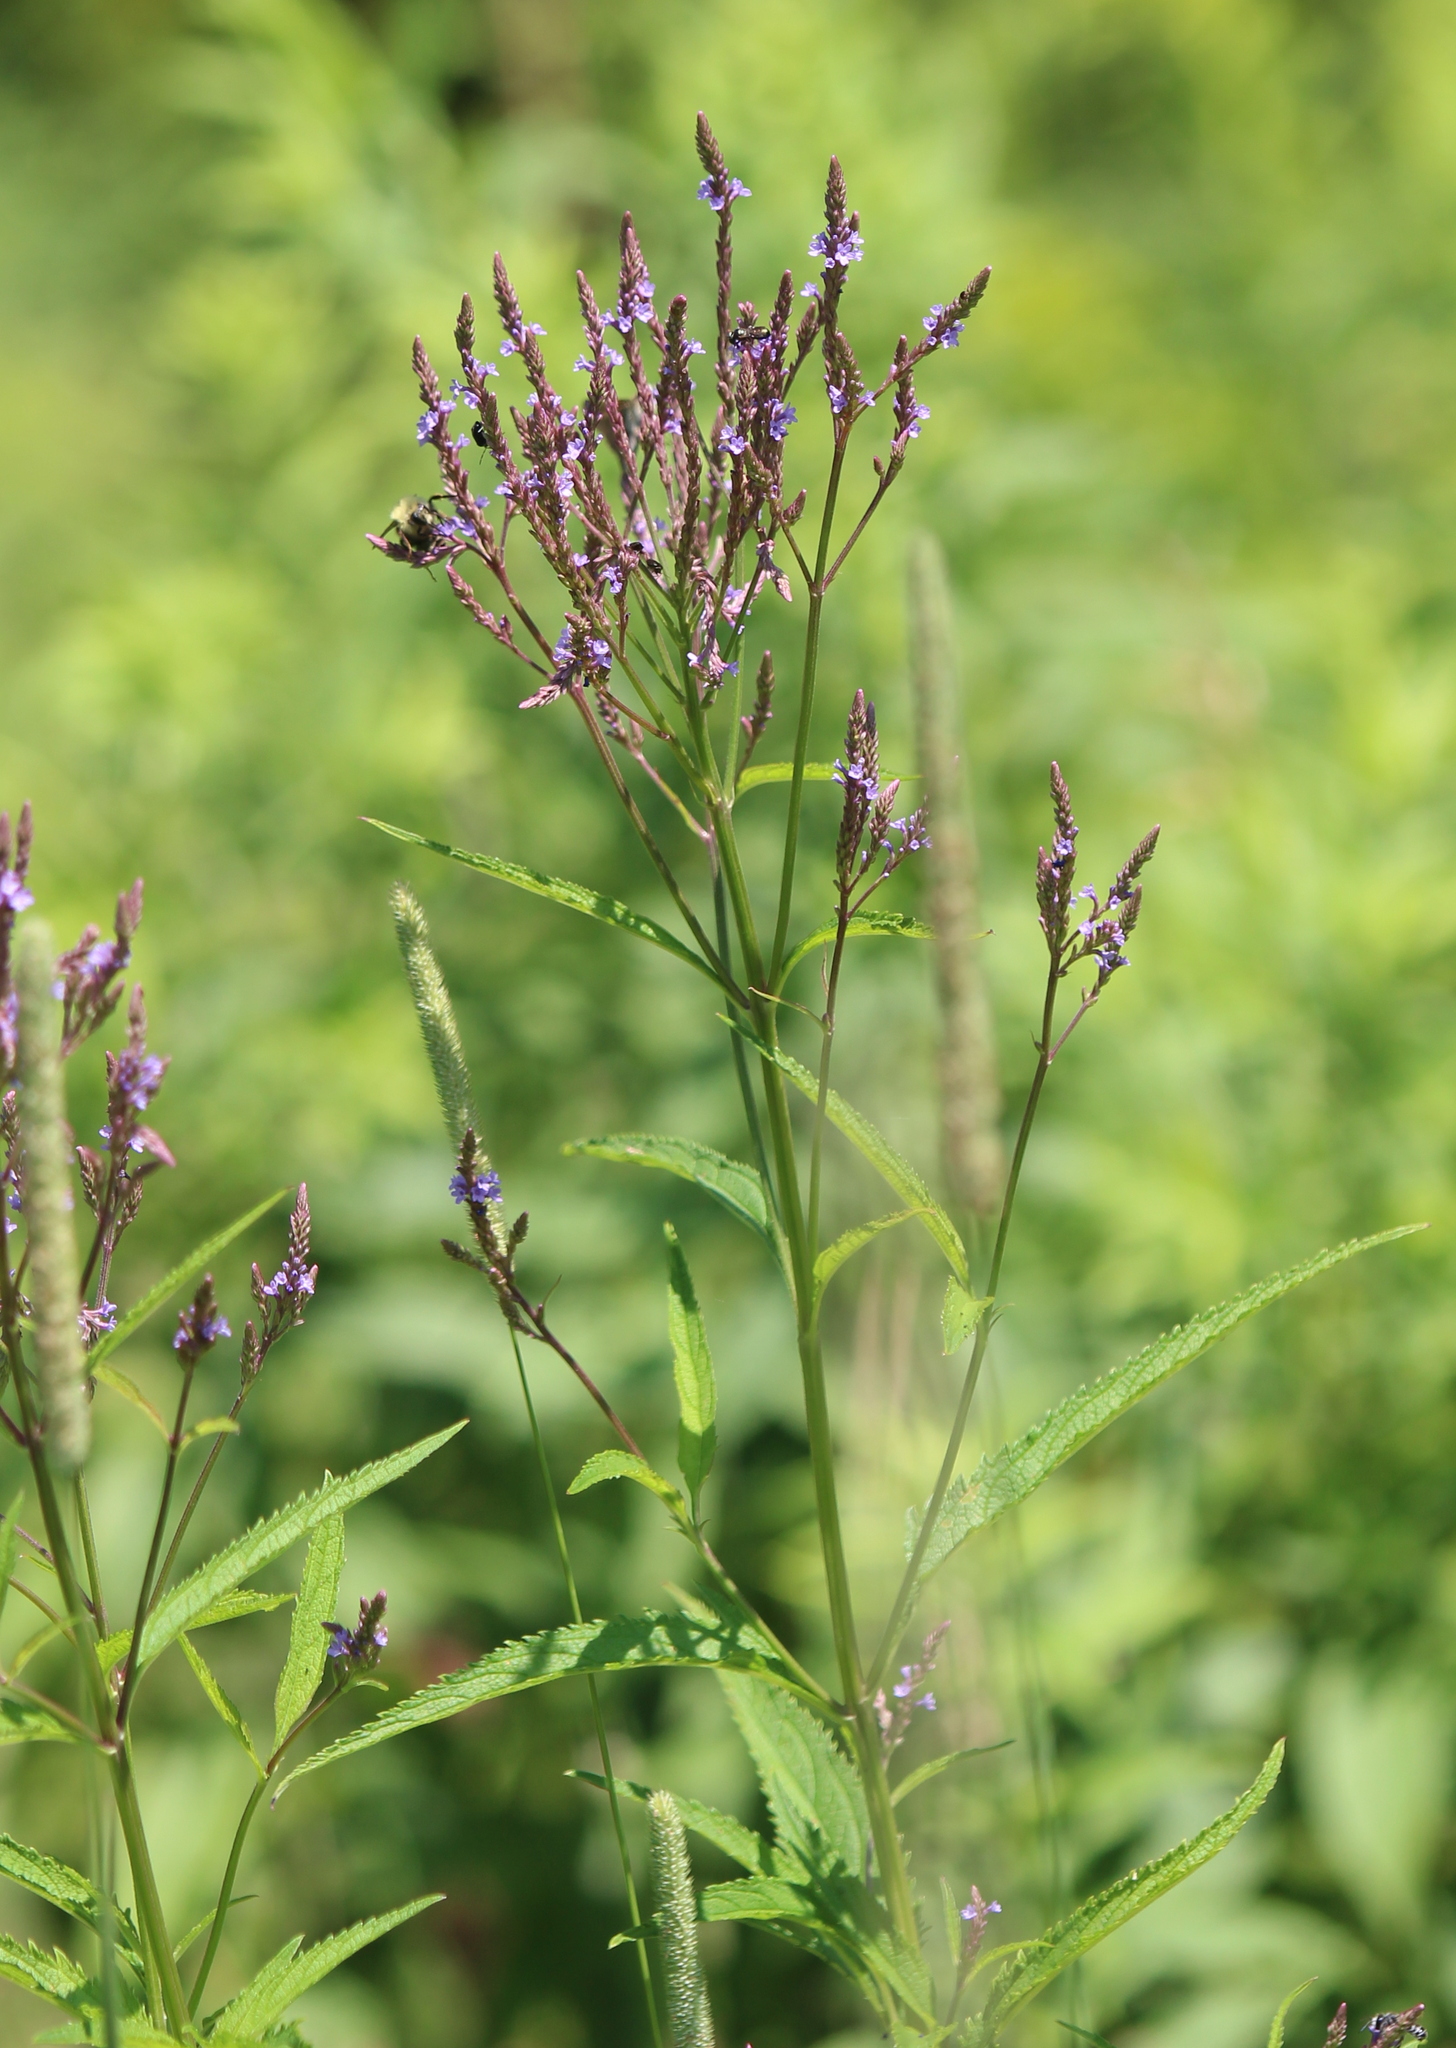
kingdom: Plantae
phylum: Tracheophyta
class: Magnoliopsida
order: Lamiales
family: Verbenaceae
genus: Verbena
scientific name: Verbena hastata
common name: American blue vervain
